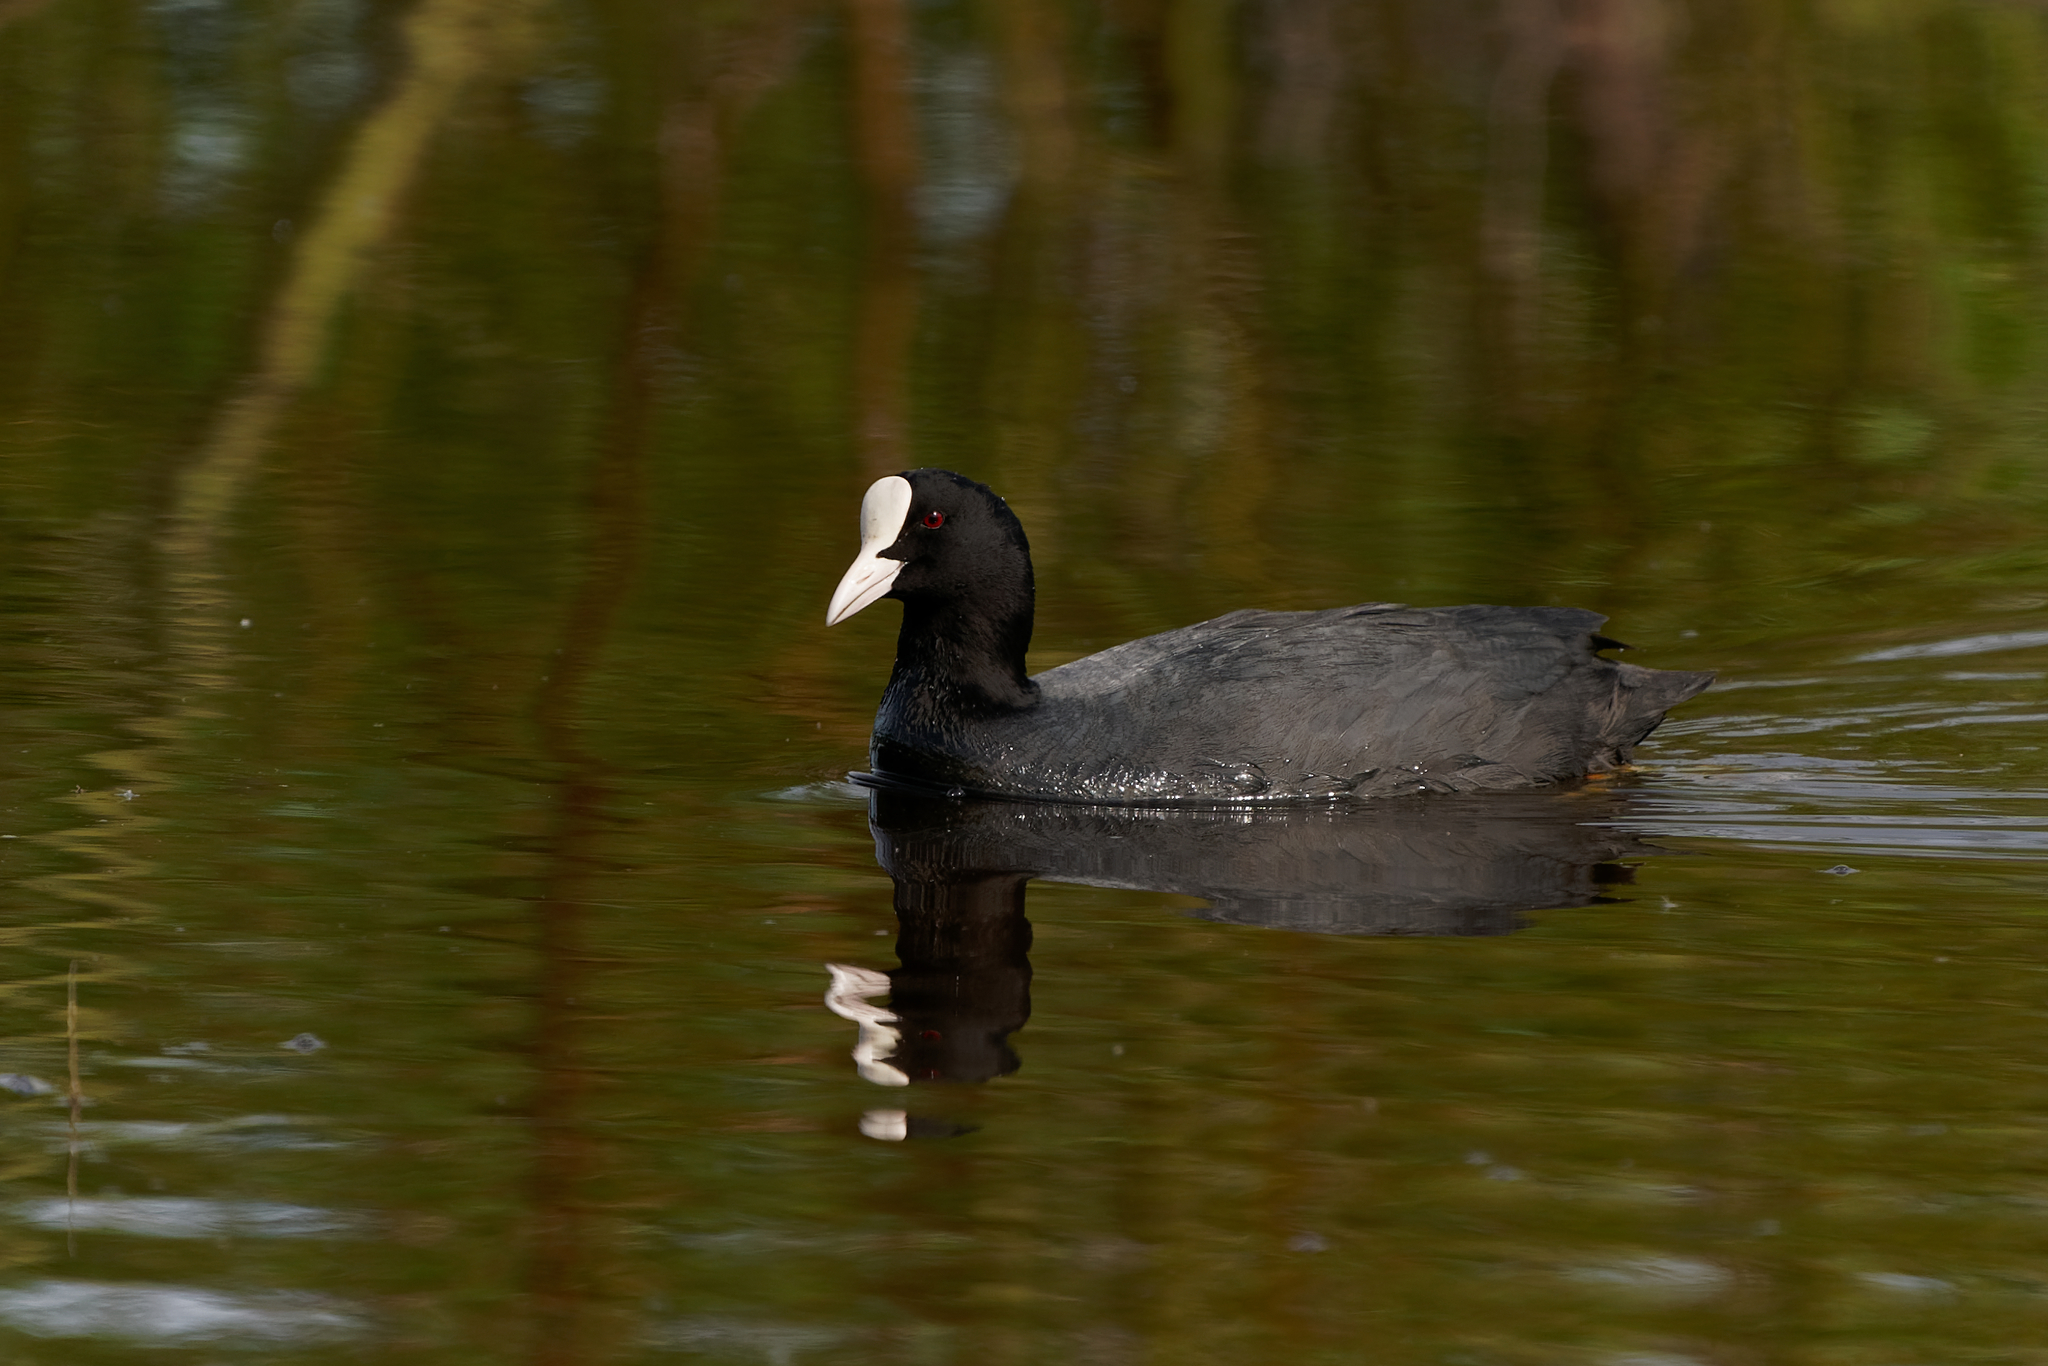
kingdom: Animalia
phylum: Chordata
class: Aves
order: Gruiformes
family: Rallidae
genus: Fulica
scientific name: Fulica atra
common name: Eurasian coot
